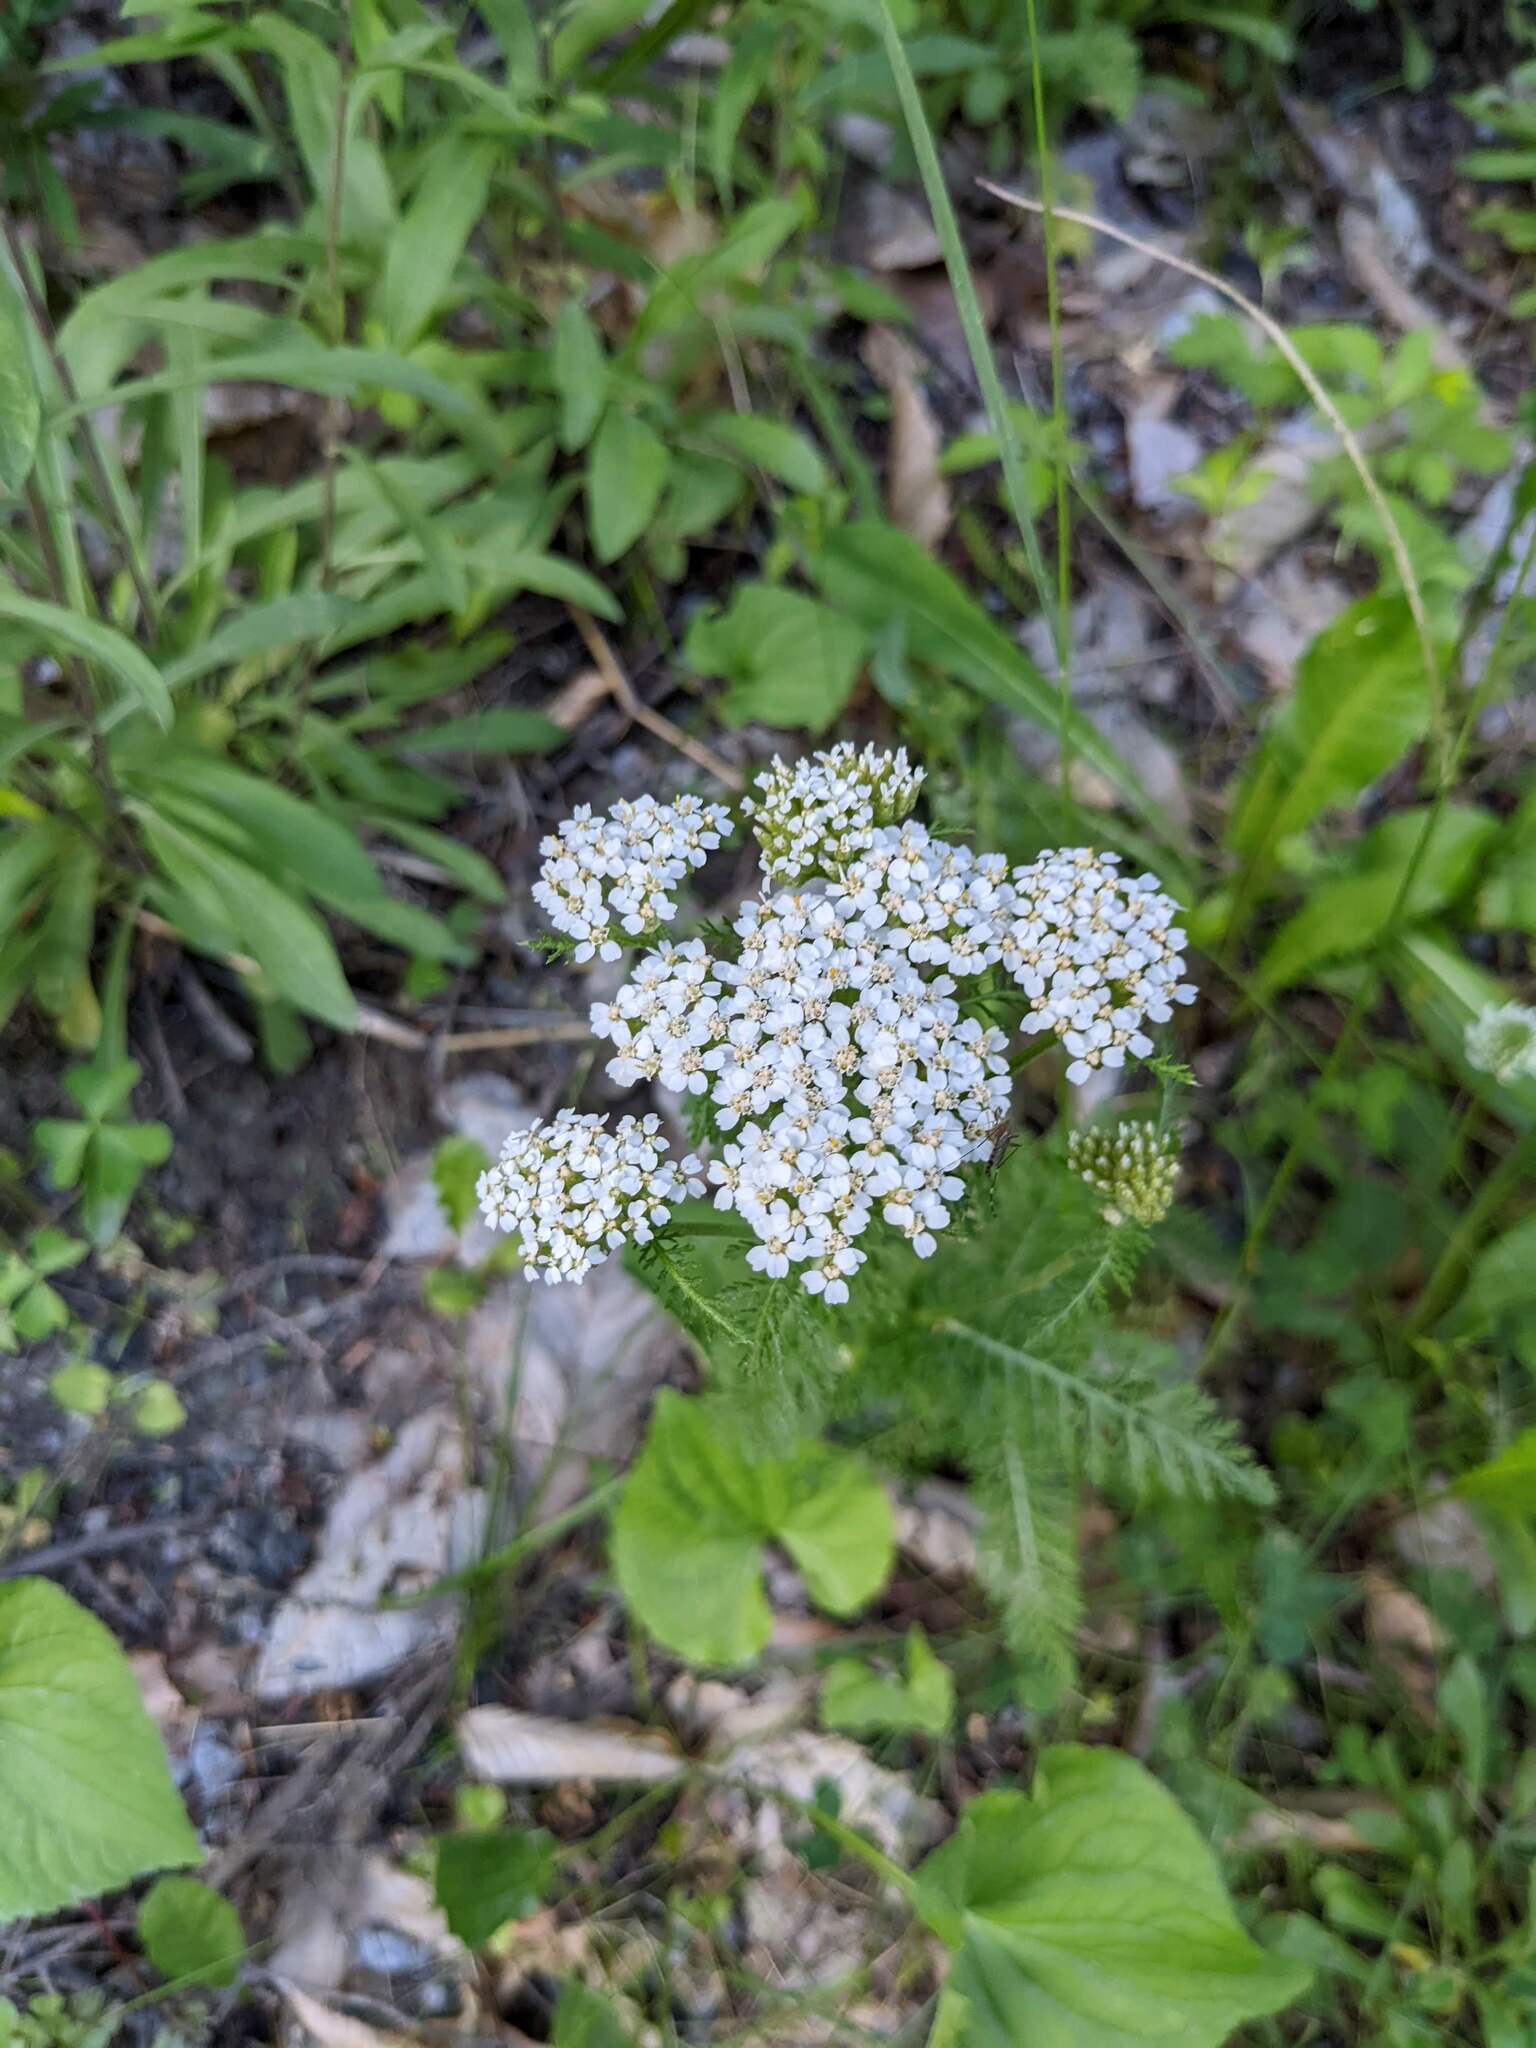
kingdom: Plantae
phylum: Tracheophyta
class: Magnoliopsida
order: Asterales
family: Asteraceae
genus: Achillea
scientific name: Achillea millefolium
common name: Yarrow
